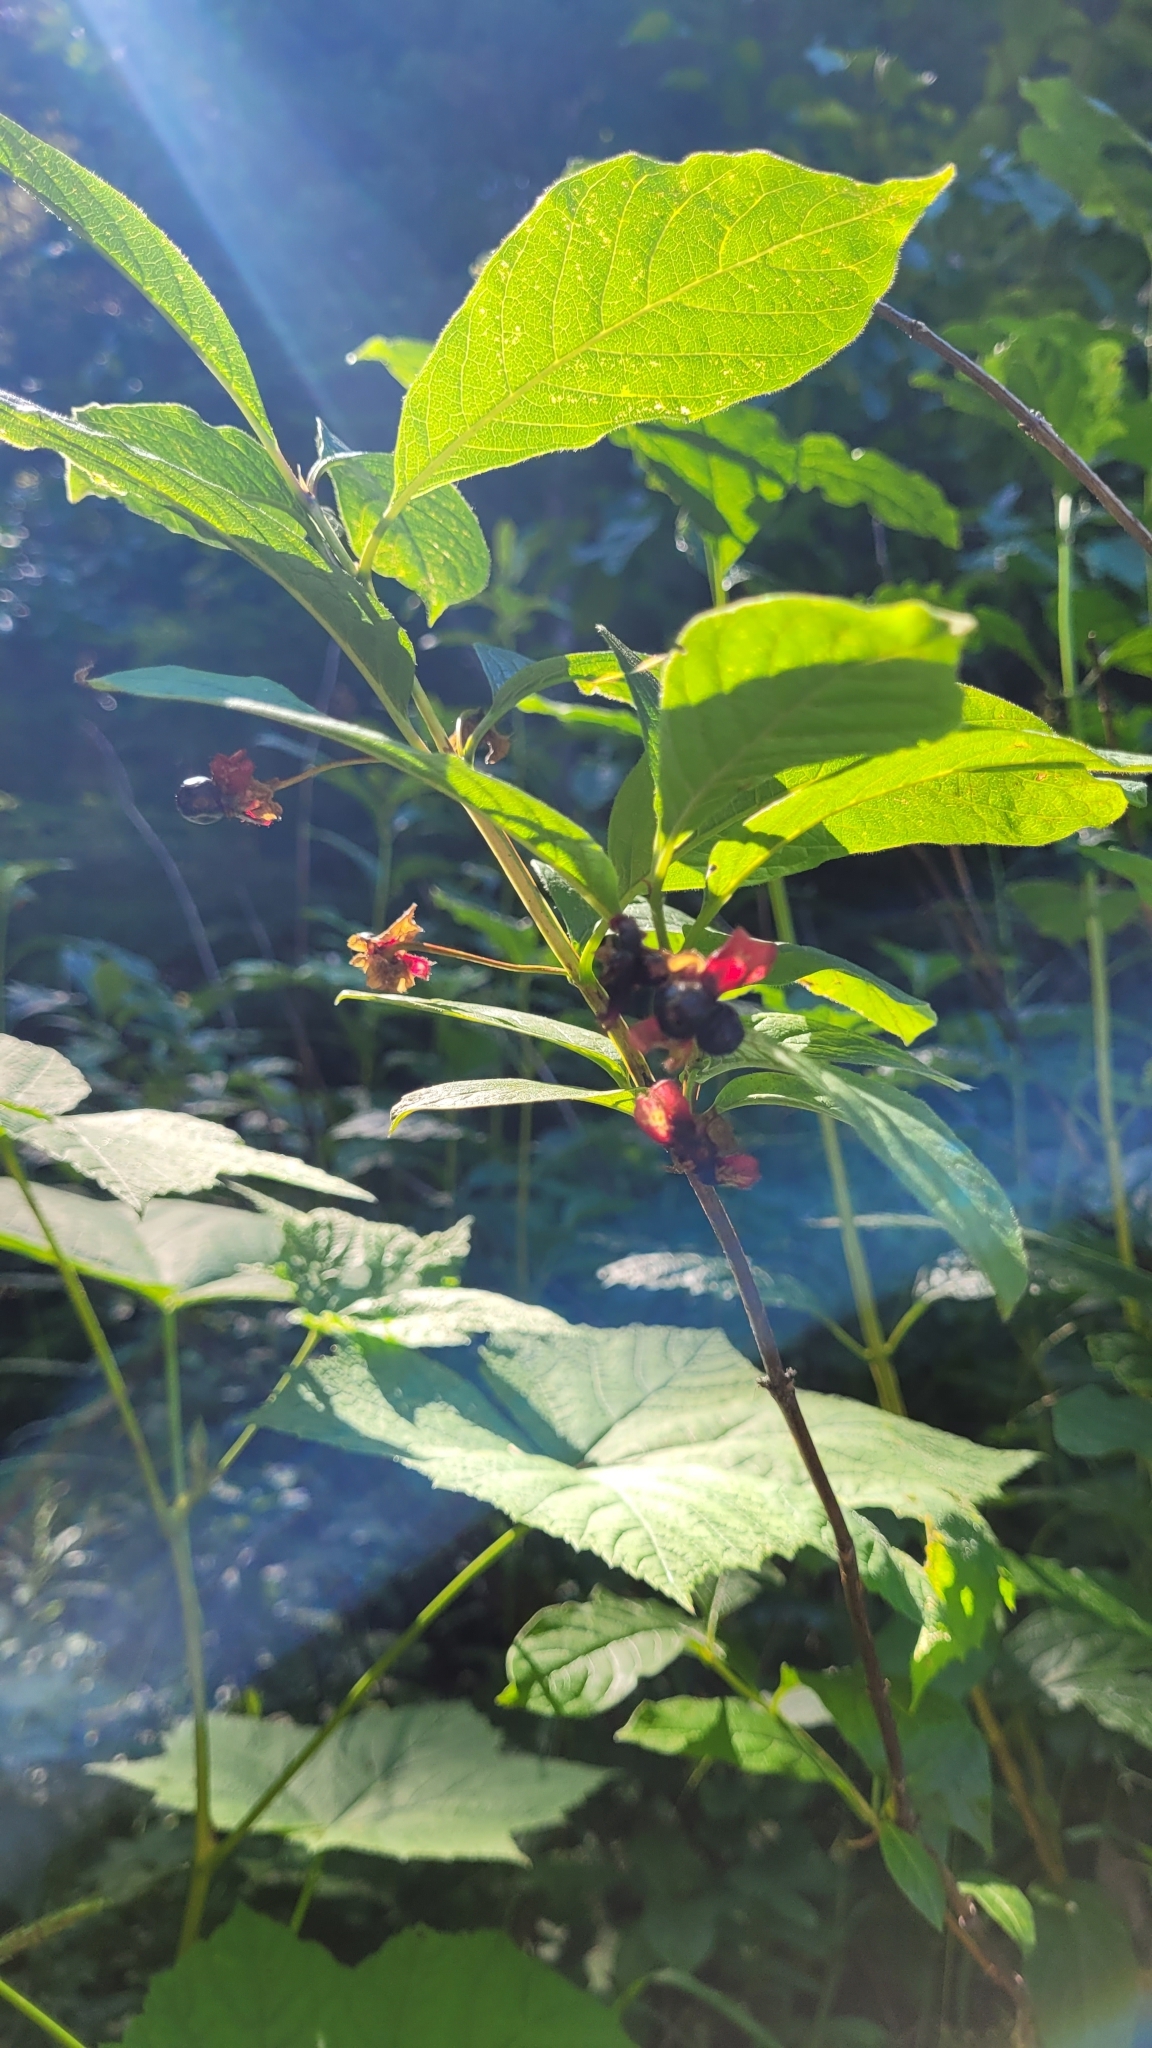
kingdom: Plantae
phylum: Tracheophyta
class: Magnoliopsida
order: Dipsacales
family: Caprifoliaceae
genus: Lonicera
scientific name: Lonicera involucrata
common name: Californian honeysuckle
